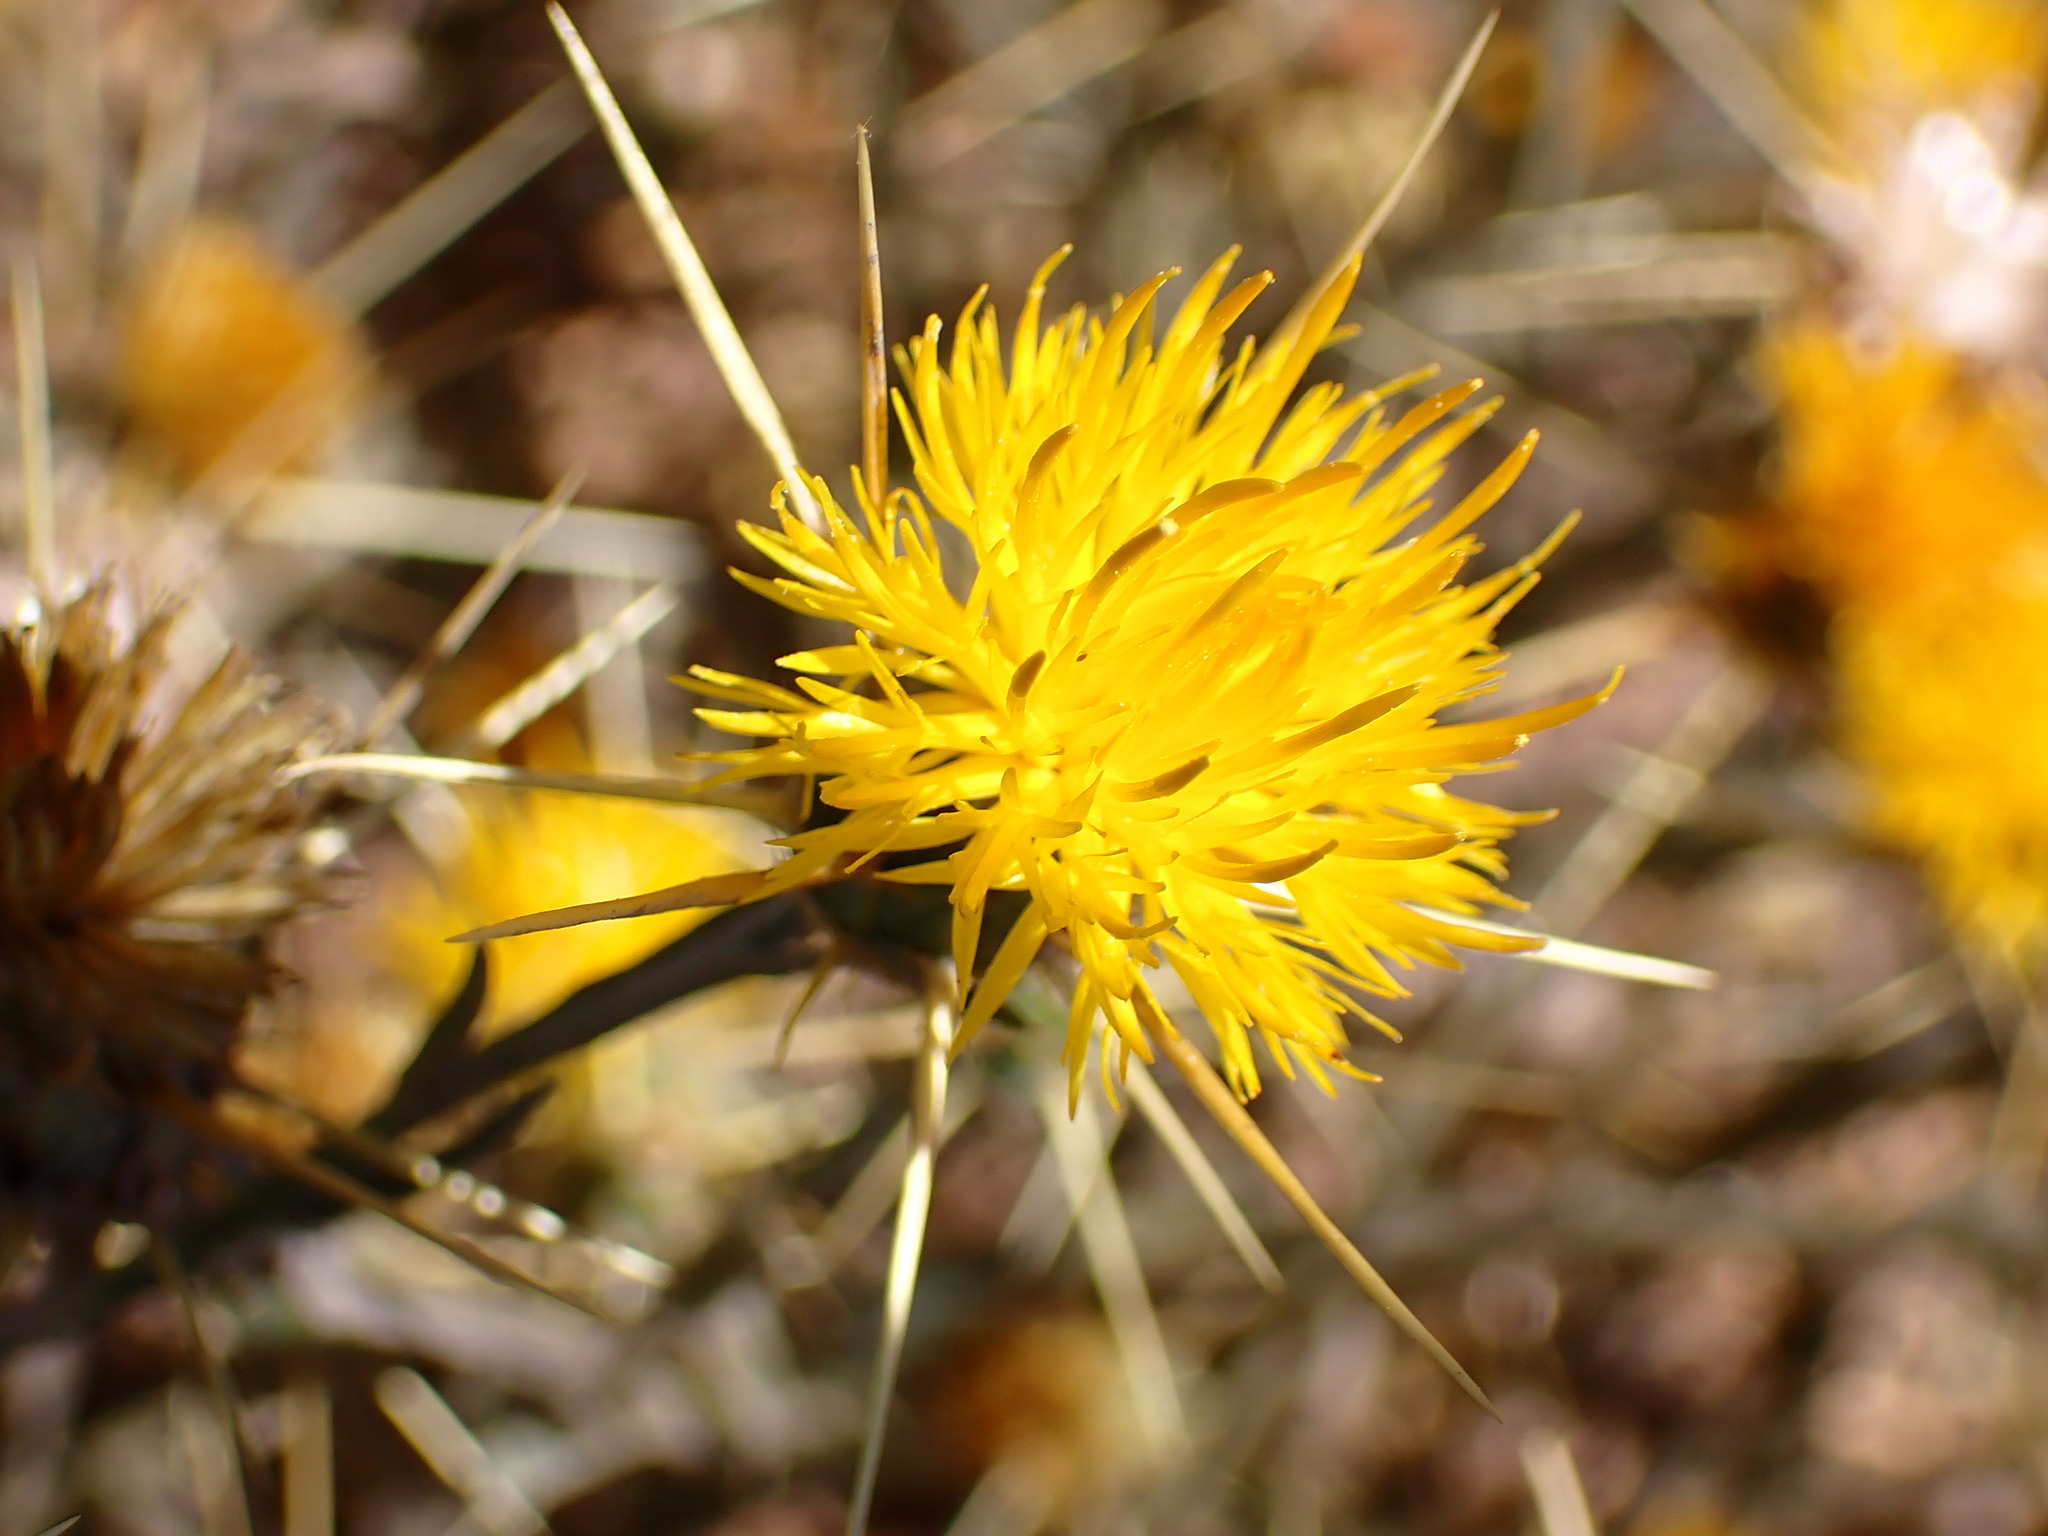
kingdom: Plantae
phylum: Tracheophyta
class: Magnoliopsida
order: Asterales
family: Asteraceae
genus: Centaurea
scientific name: Centaurea solstitialis
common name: Yellow star-thistle
